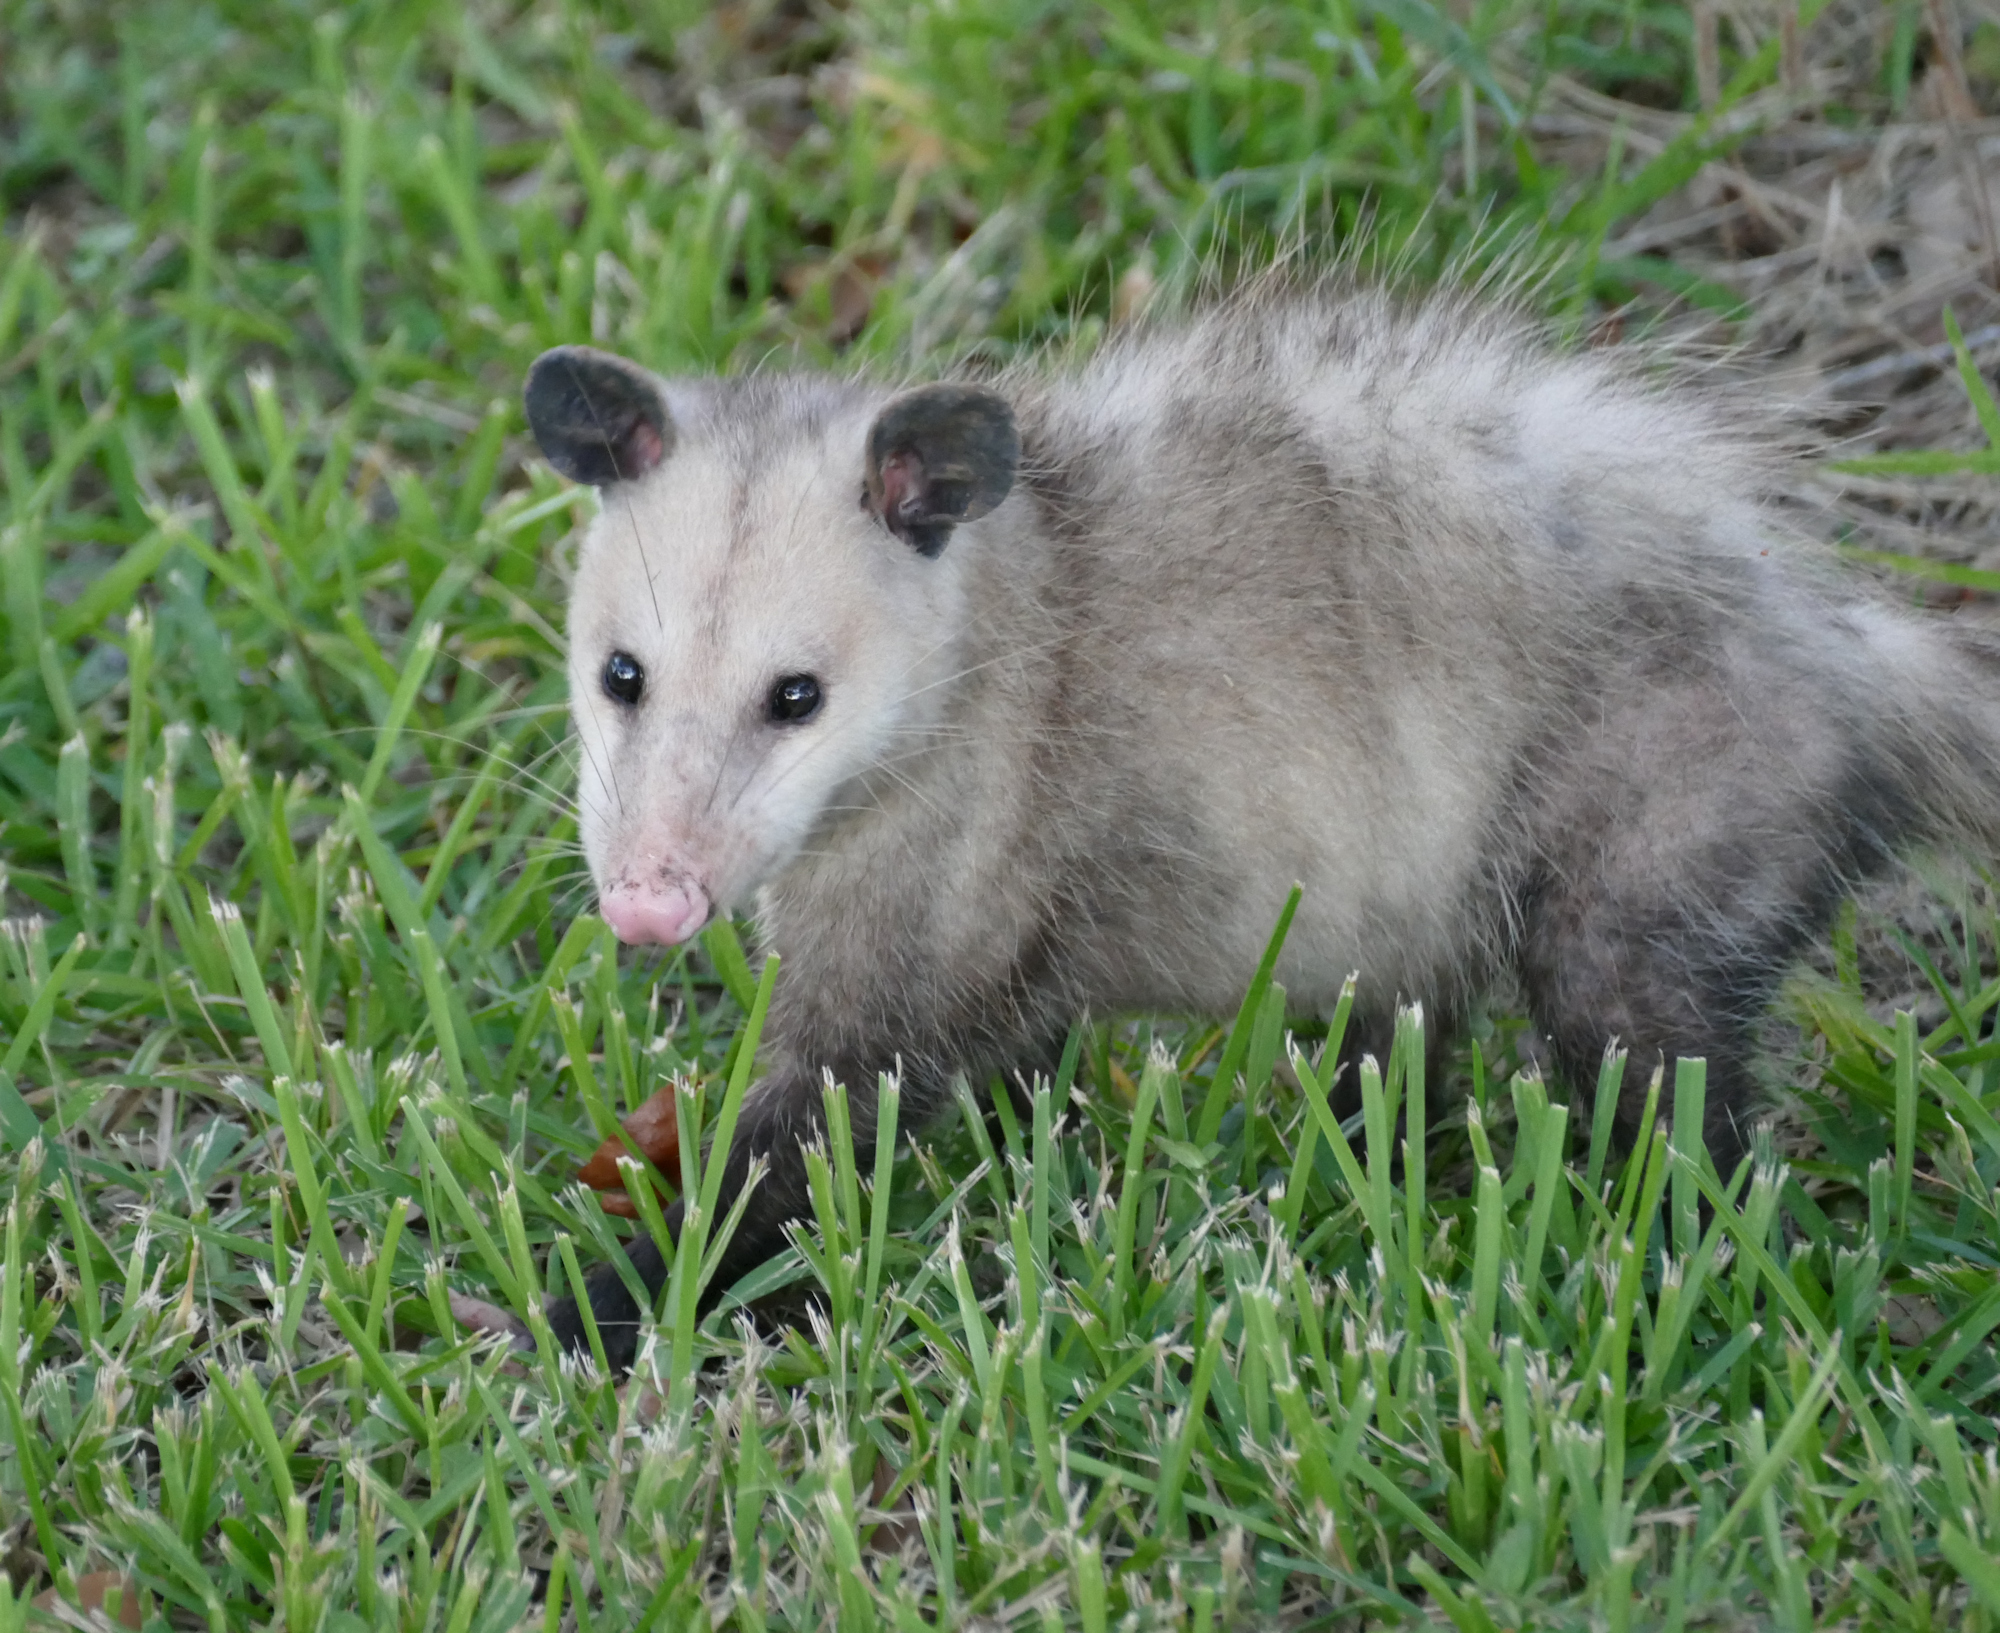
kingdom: Animalia
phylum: Chordata
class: Mammalia
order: Didelphimorphia
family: Didelphidae
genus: Didelphis
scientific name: Didelphis virginiana
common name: Virginia opossum
